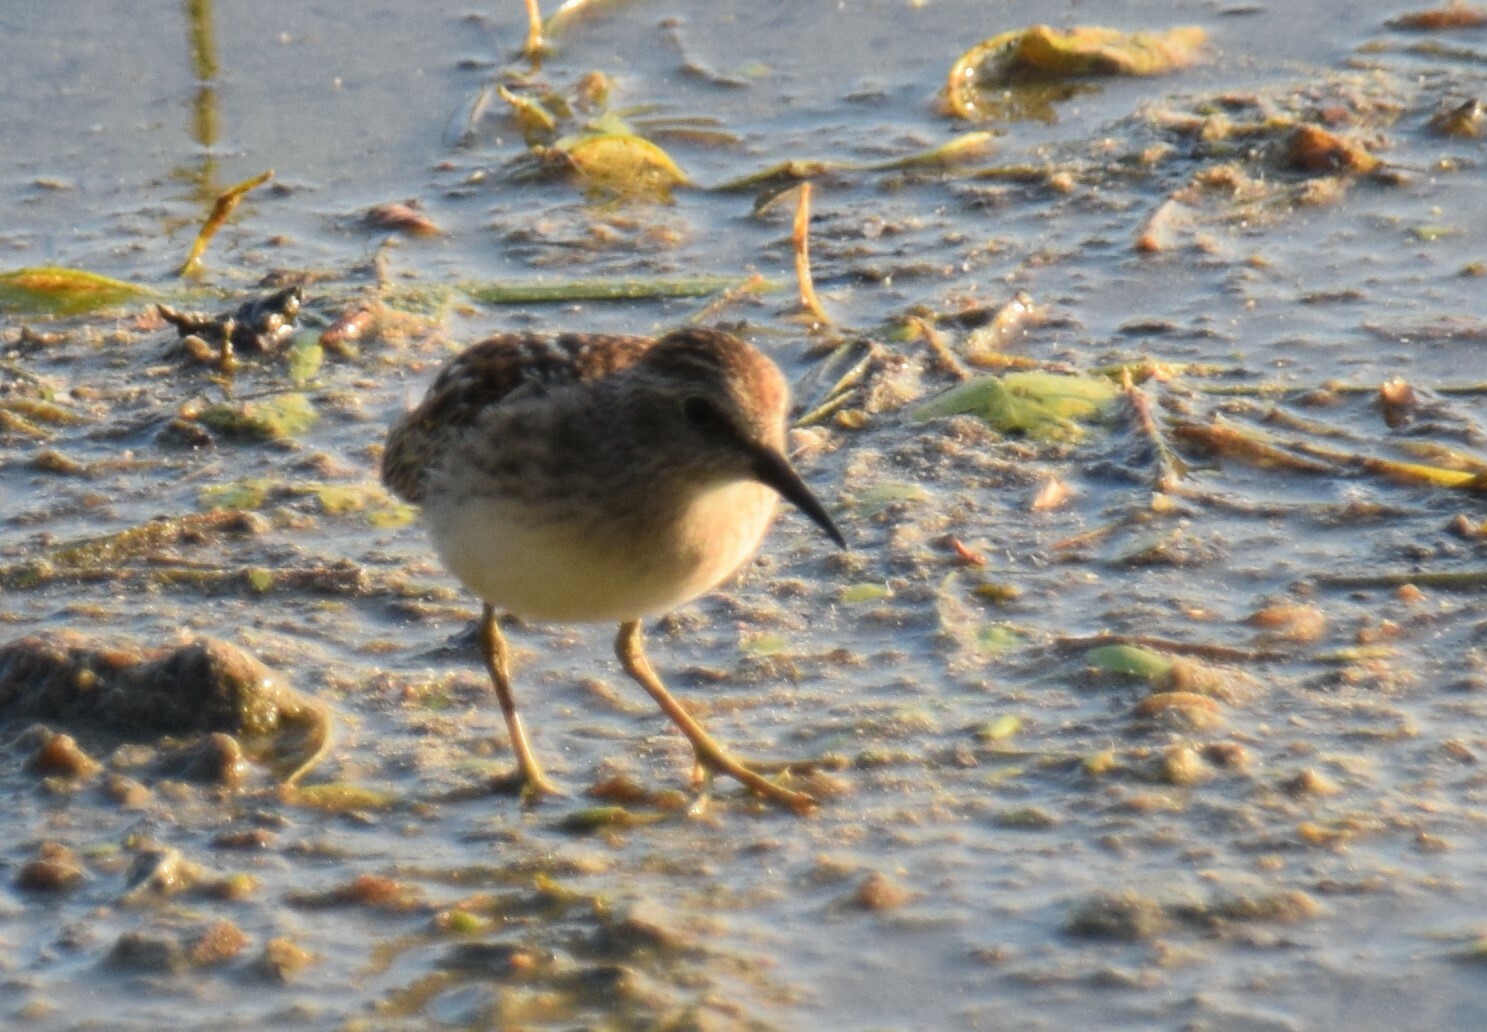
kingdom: Animalia
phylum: Chordata
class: Aves
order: Charadriiformes
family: Scolopacidae
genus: Calidris
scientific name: Calidris minutilla
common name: Least sandpiper
